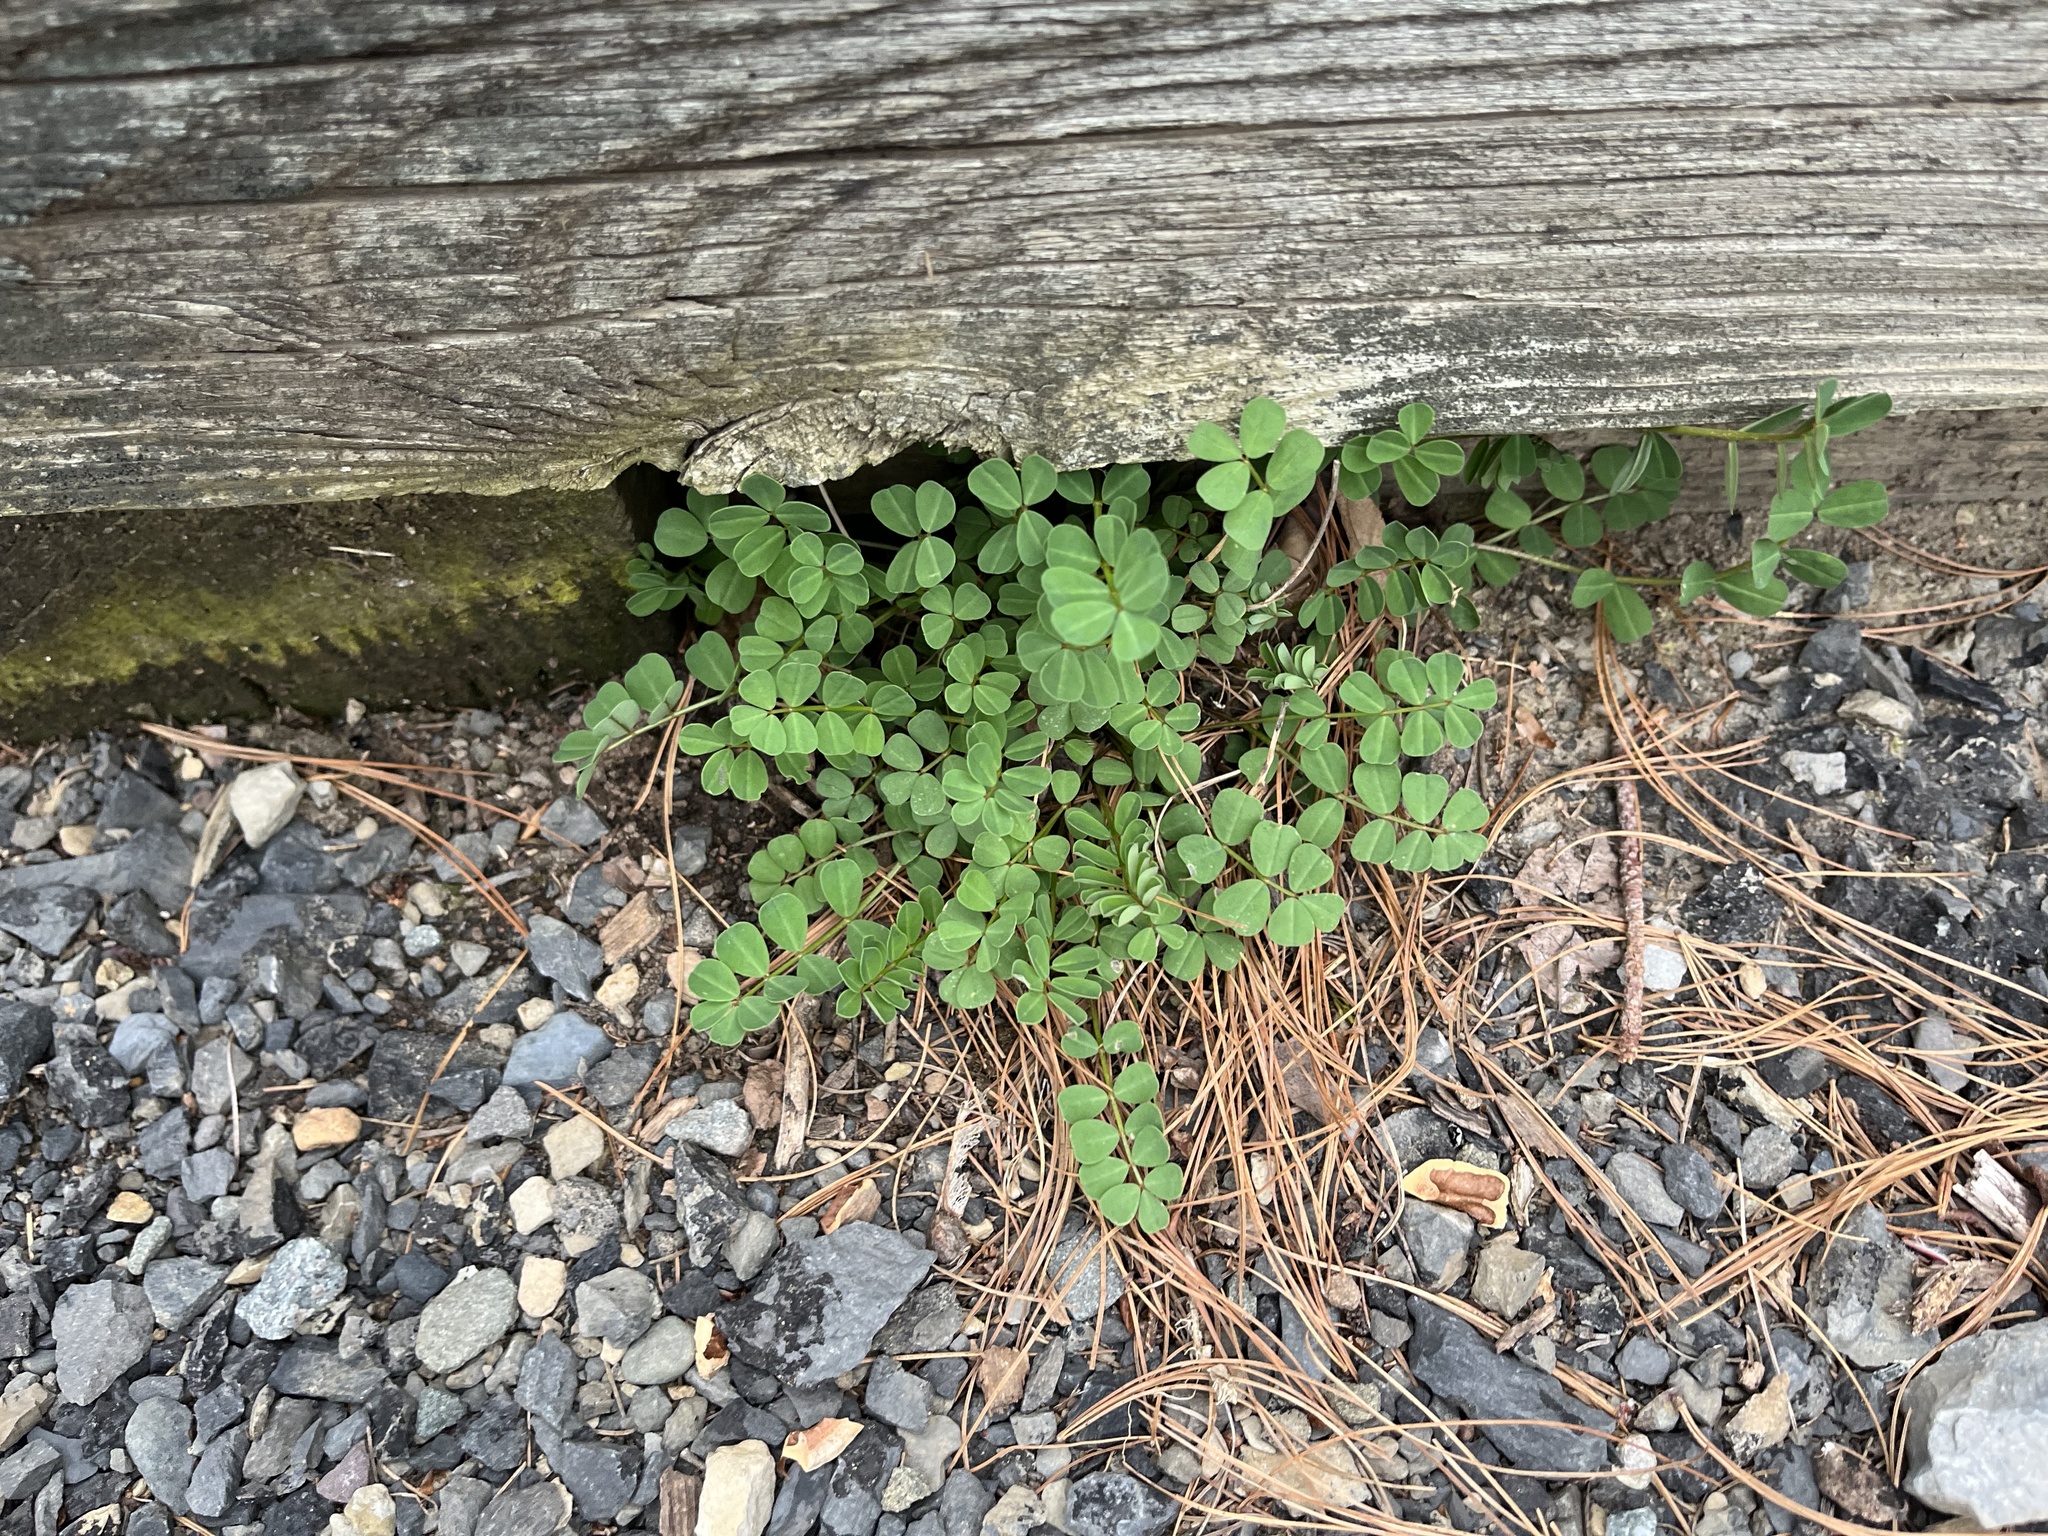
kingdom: Plantae
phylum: Tracheophyta
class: Magnoliopsida
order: Fabales
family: Fabaceae
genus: Coronilla
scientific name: Coronilla varia
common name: Crownvetch
